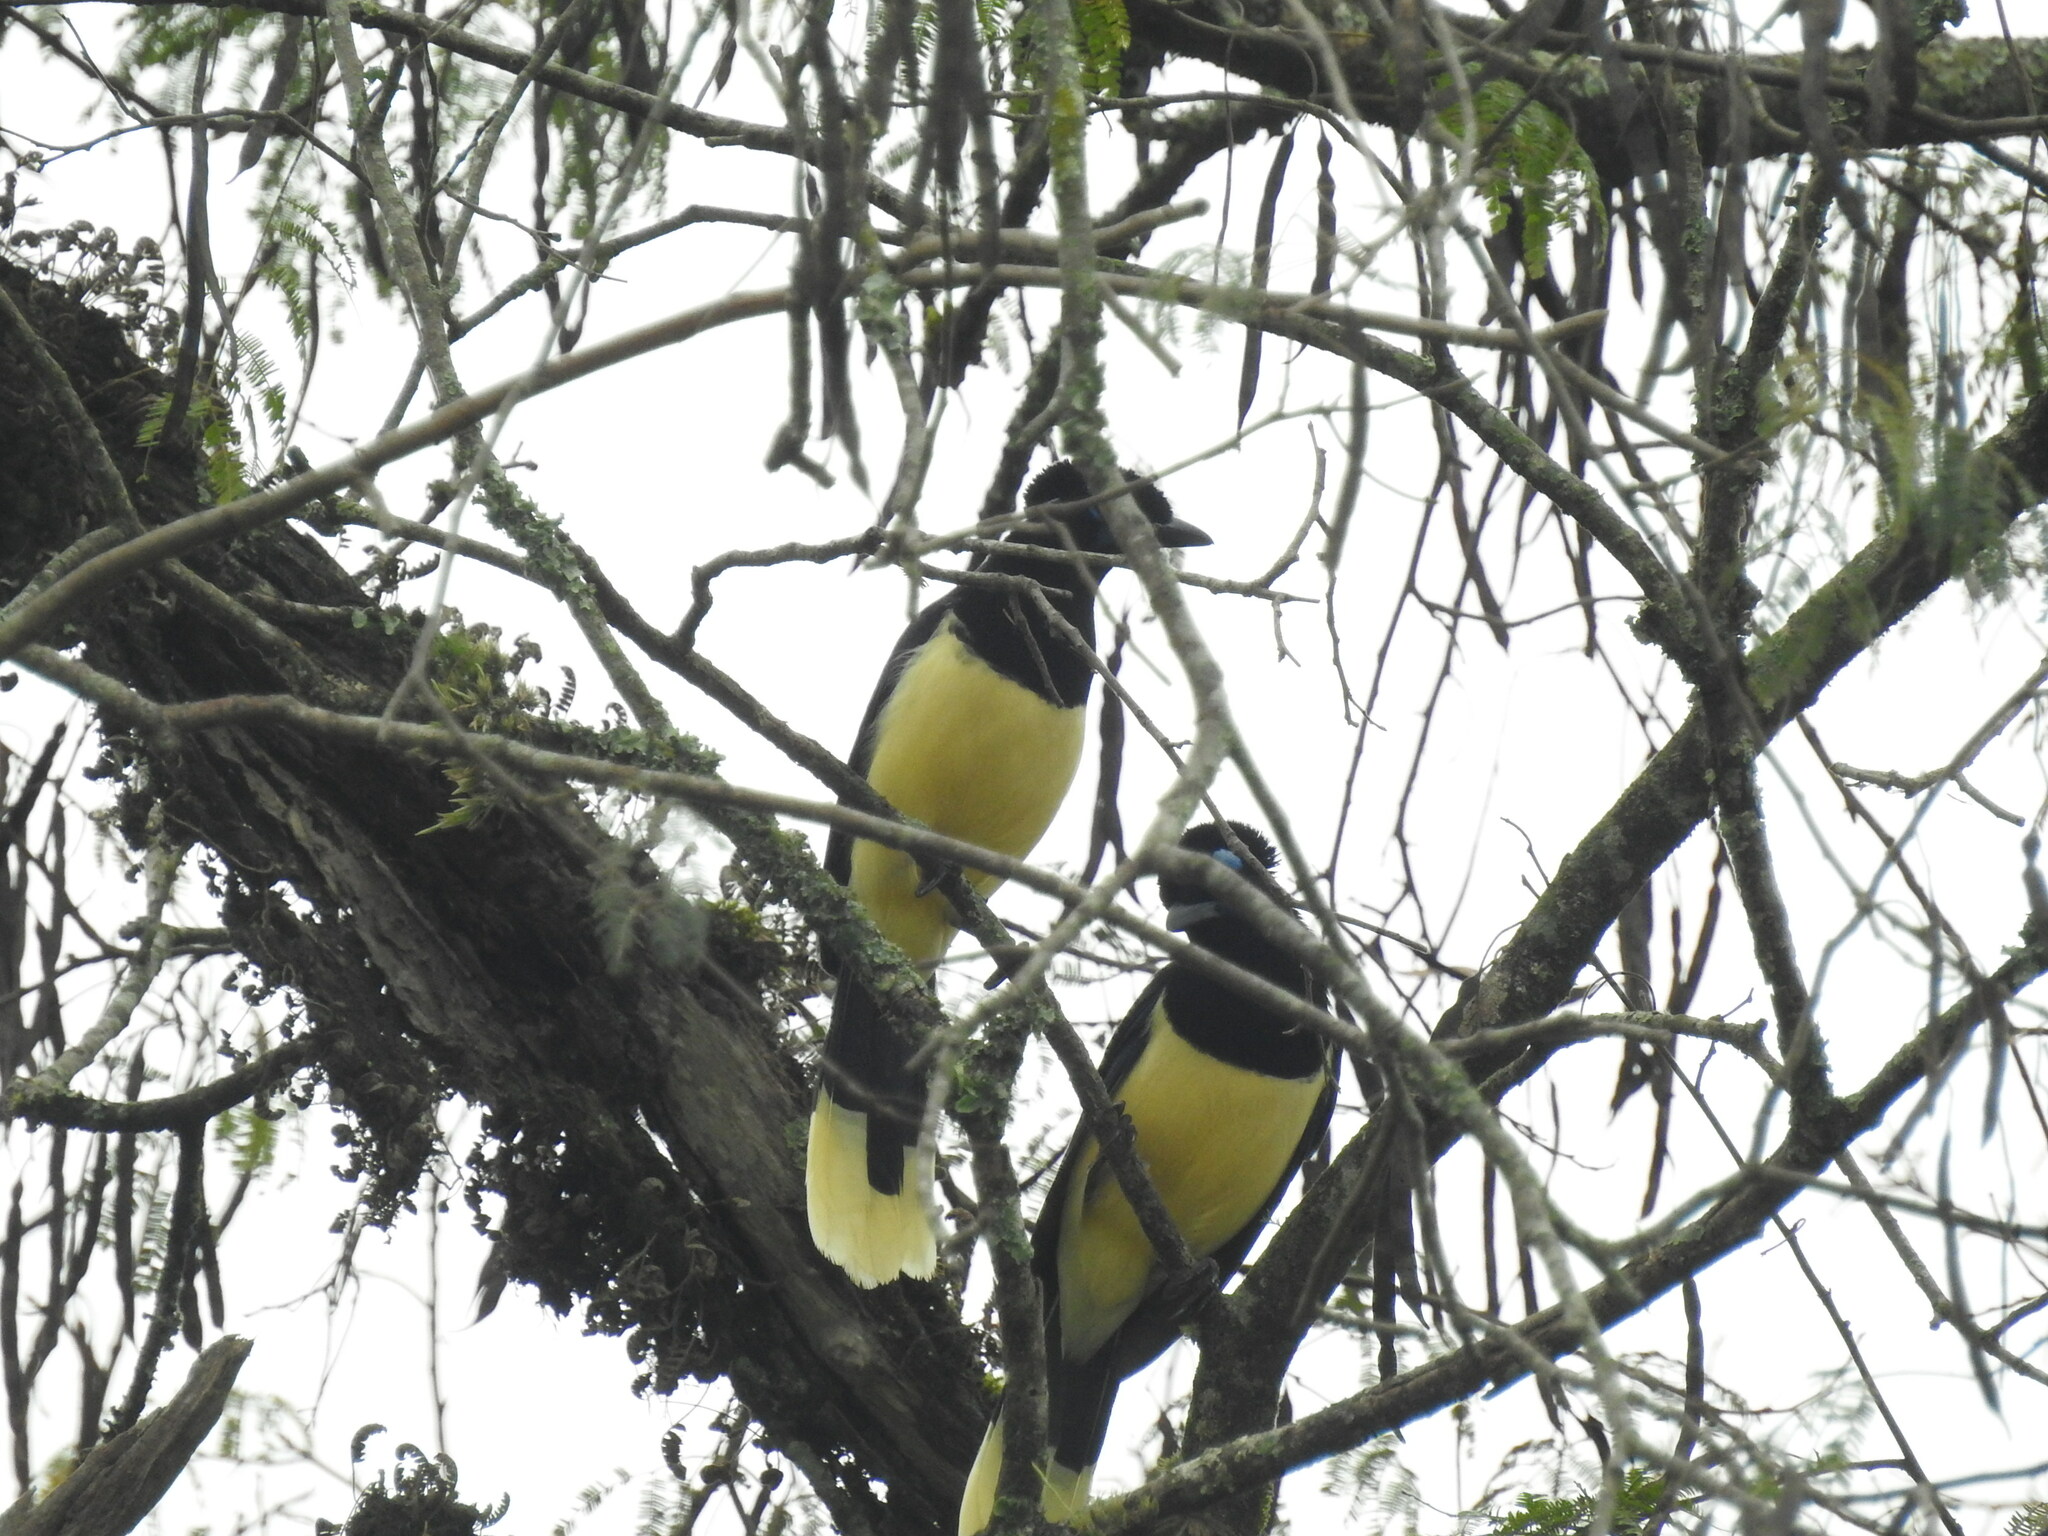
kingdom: Animalia
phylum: Chordata
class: Aves
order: Passeriformes
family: Corvidae
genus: Cyanocorax
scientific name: Cyanocorax chrysops
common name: Plush-crested jay
